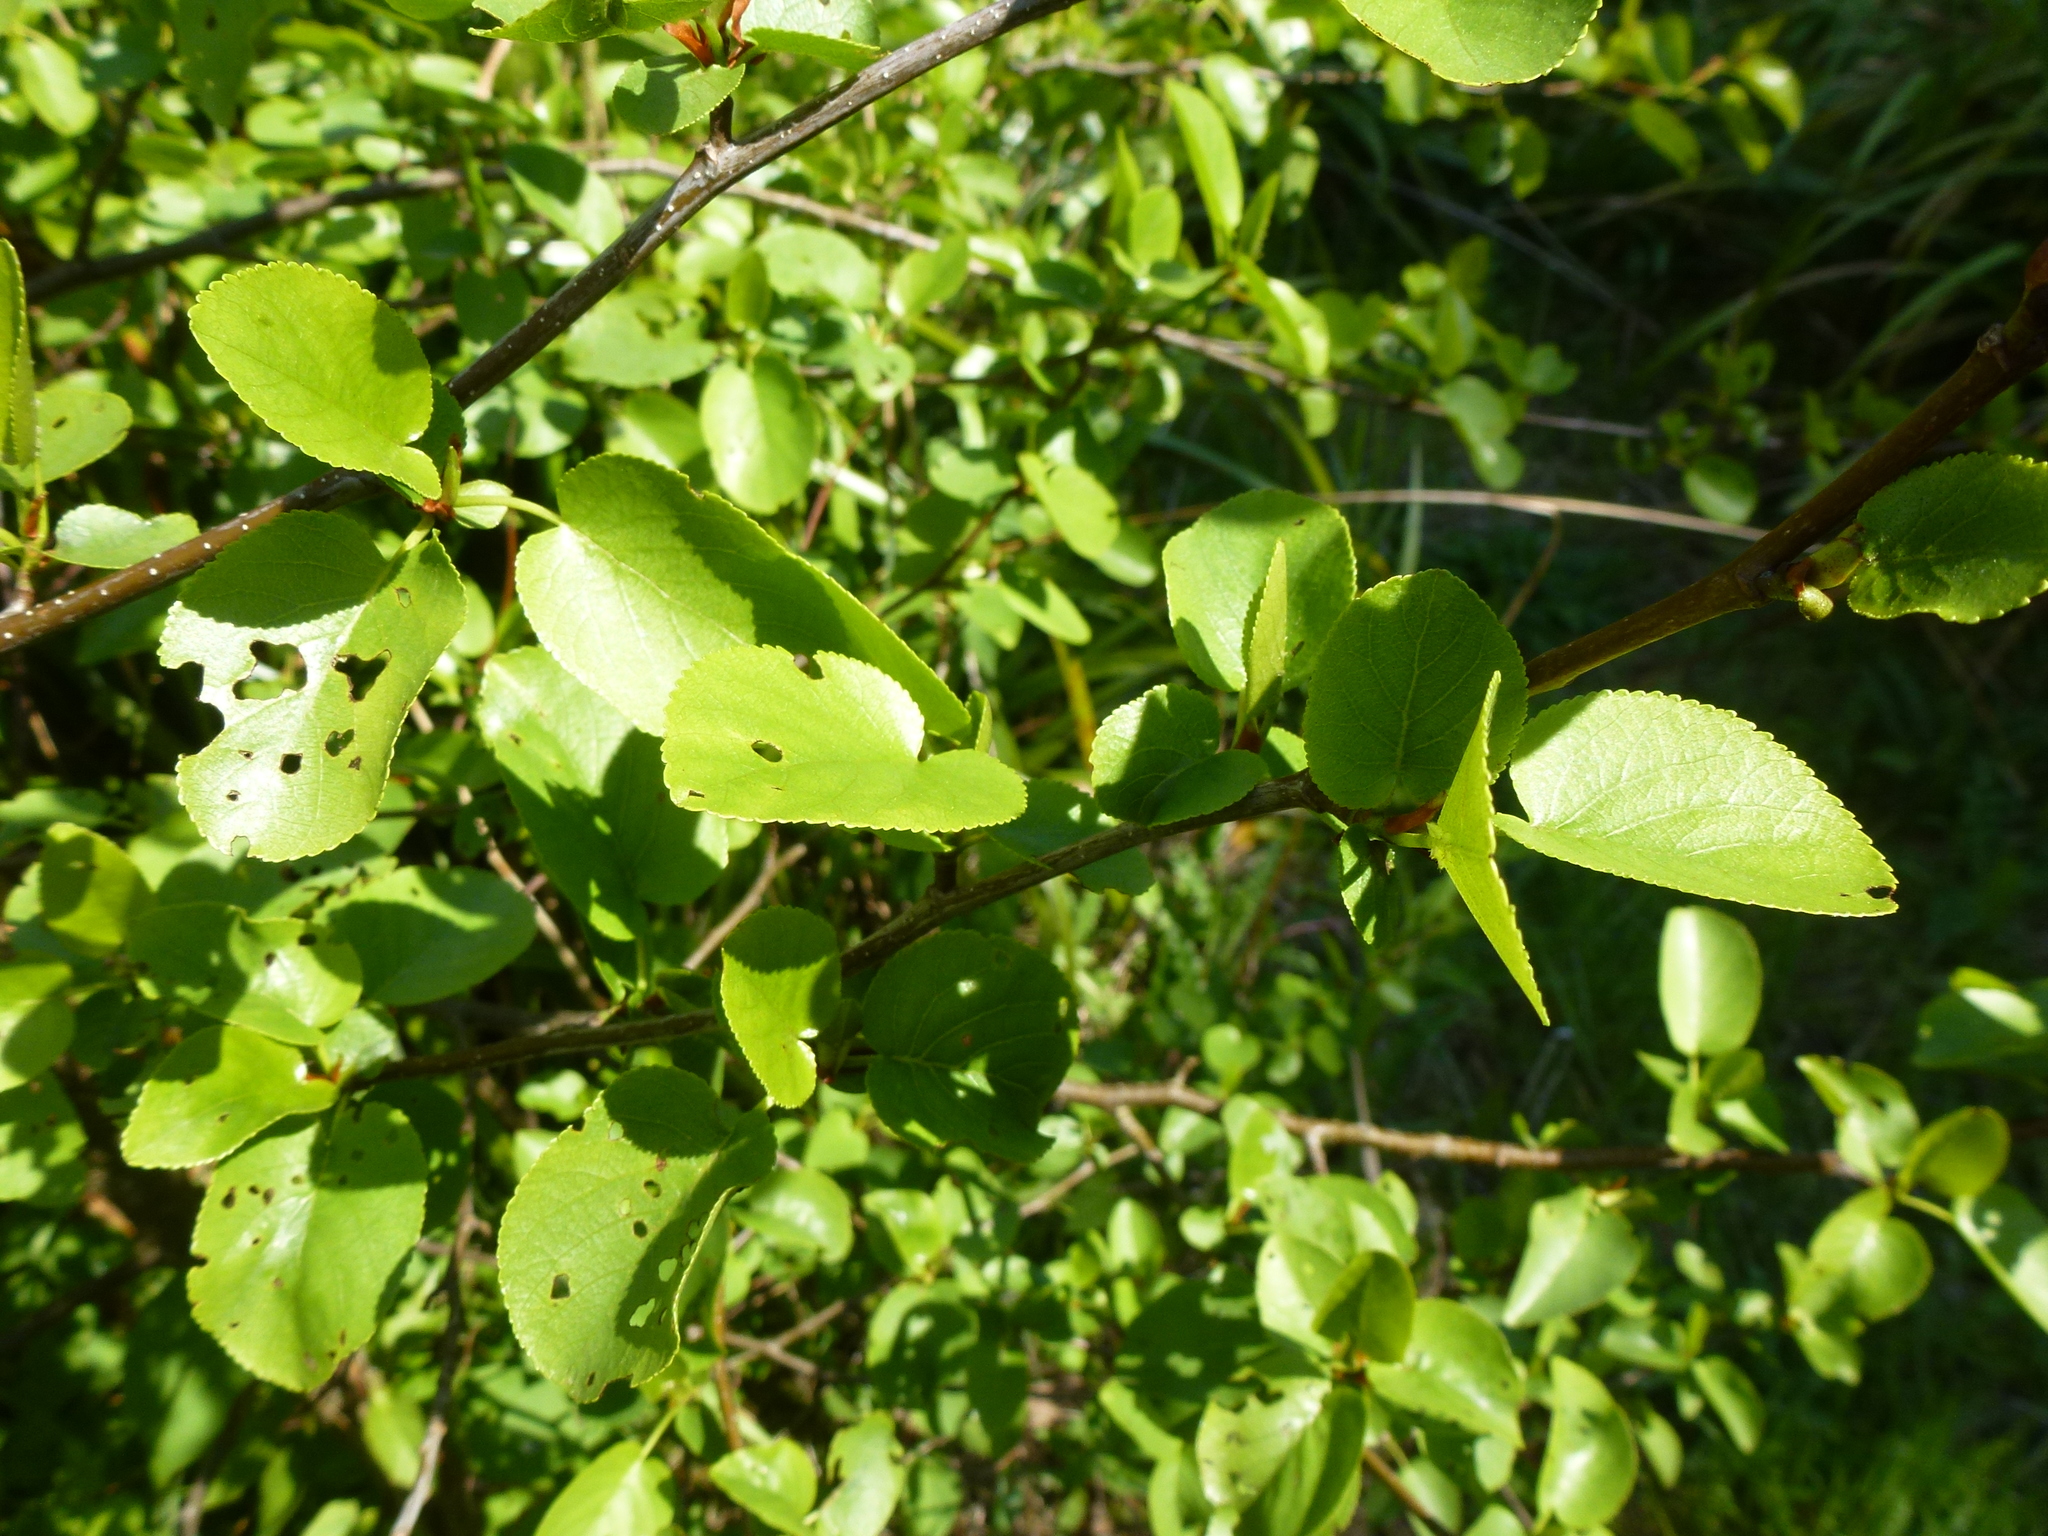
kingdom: Plantae
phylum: Tracheophyta
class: Magnoliopsida
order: Fagales
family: Betulaceae
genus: Alnus
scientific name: Alnus cordata
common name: Italian alder
